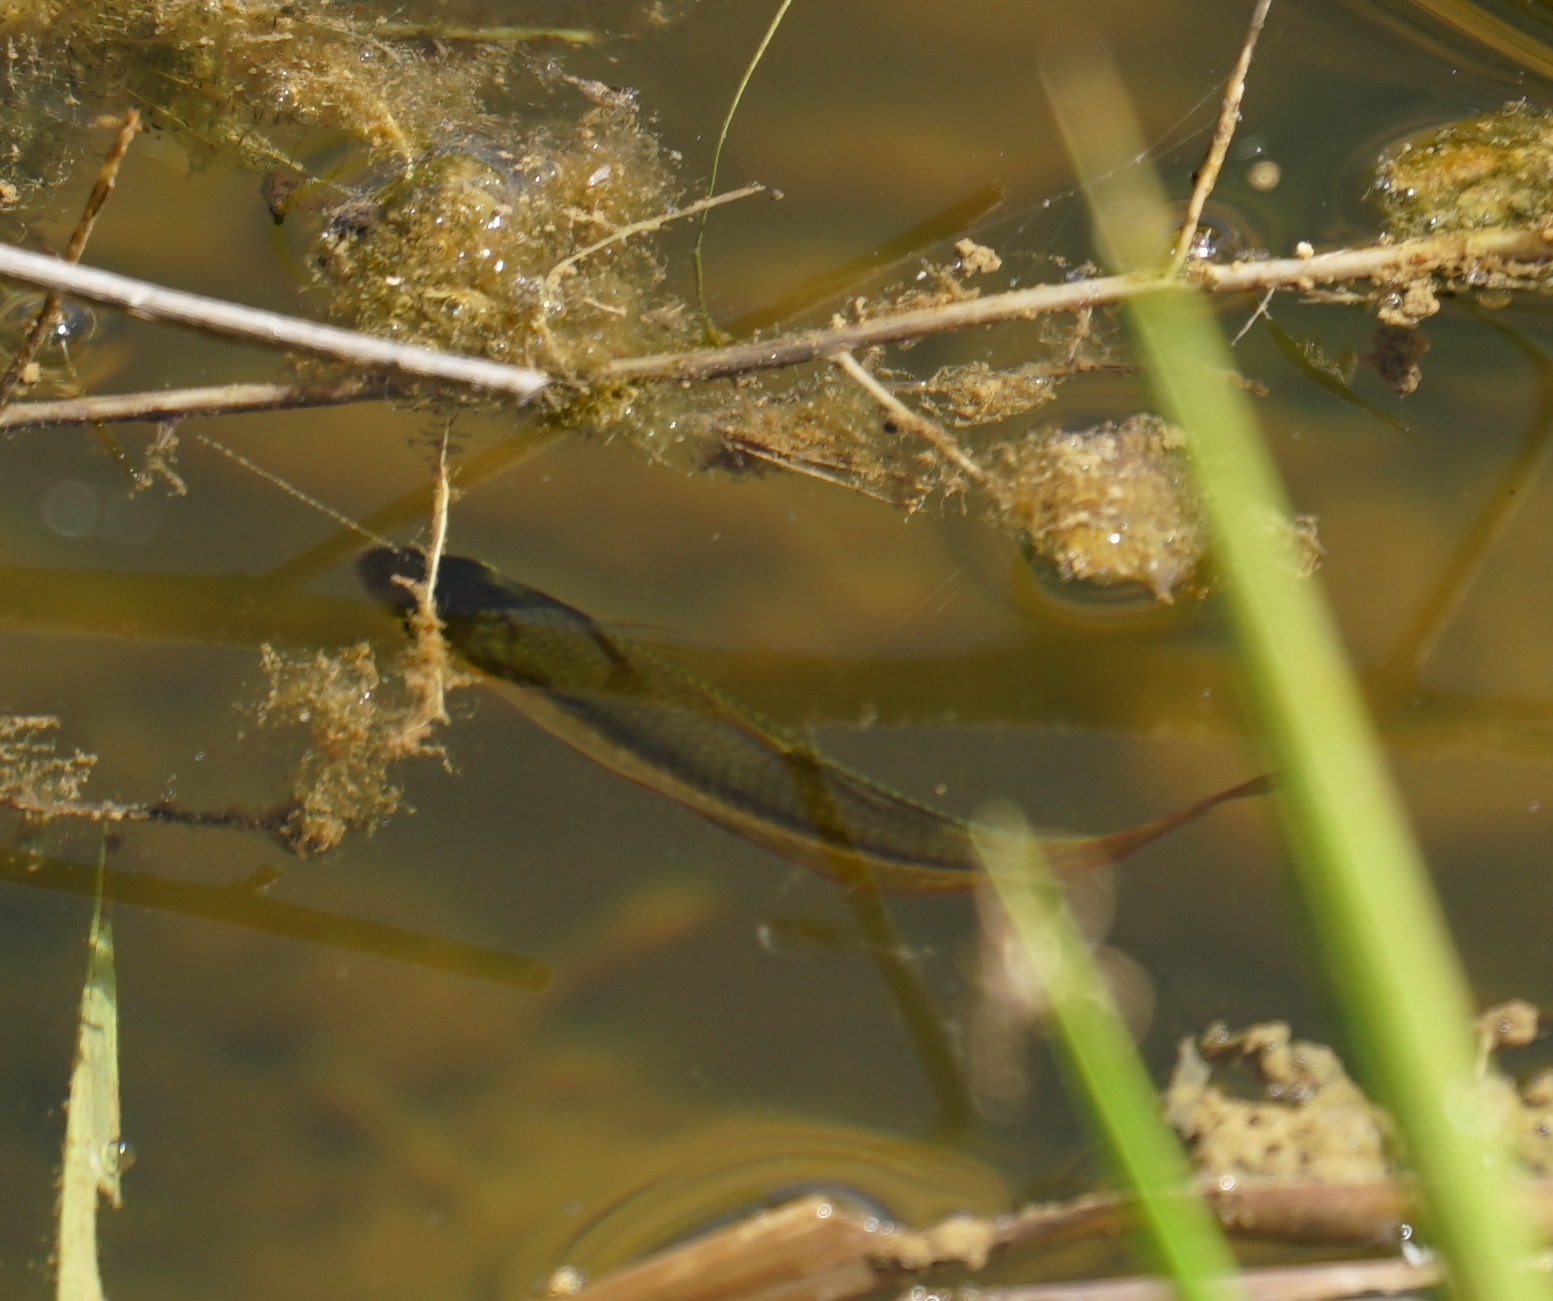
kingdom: Animalia
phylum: Chordata
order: Atheriniformes
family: Melanotaeniidae
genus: Melanotaenia
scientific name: Melanotaenia splendida
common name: Checkered rainbowfish
